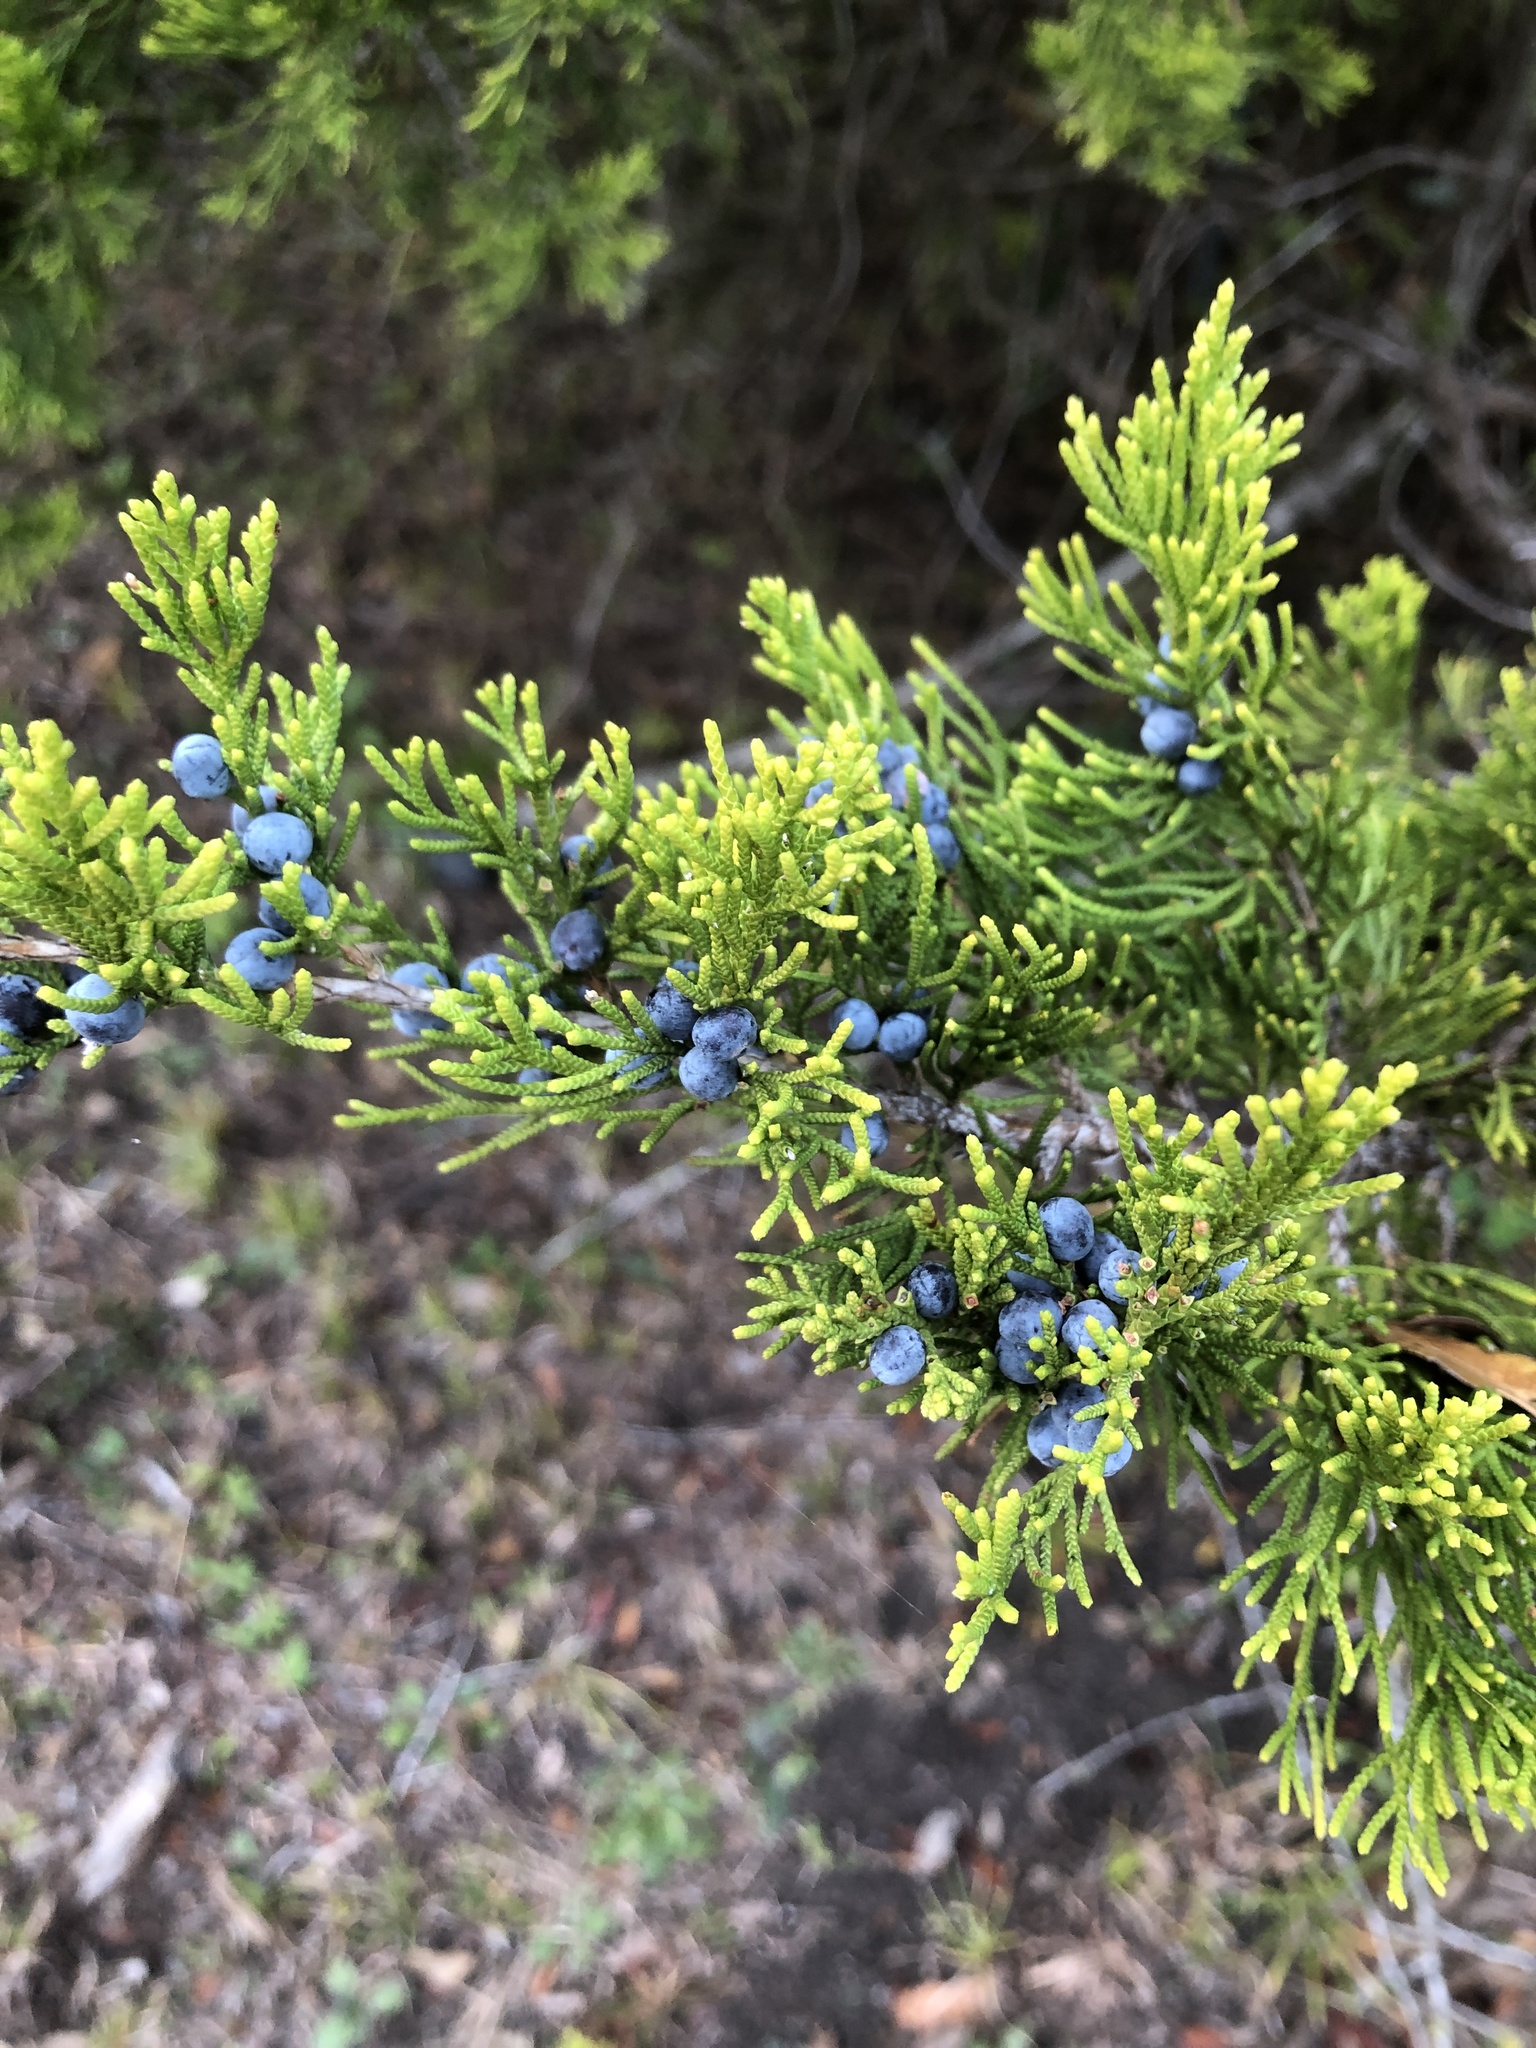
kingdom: Plantae
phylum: Tracheophyta
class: Pinopsida
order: Pinales
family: Cupressaceae
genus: Juniperus
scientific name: Juniperus virginiana
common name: Red juniper
